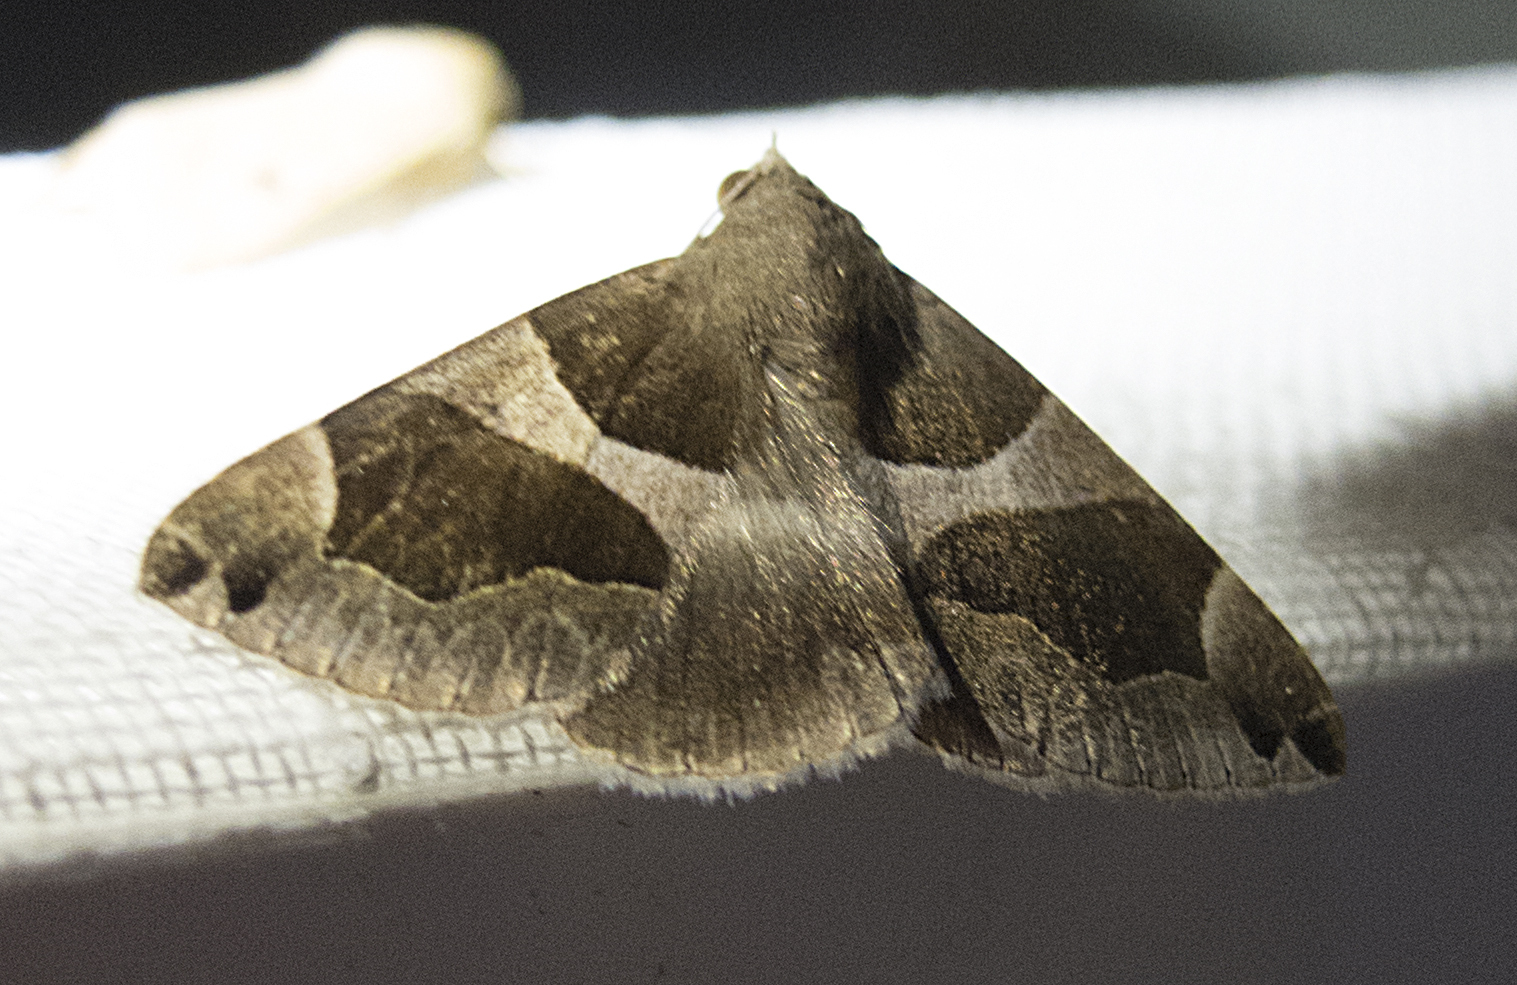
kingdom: Animalia
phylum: Arthropoda
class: Insecta
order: Lepidoptera
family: Erebidae
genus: Dysgonia
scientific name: Dysgonia algira
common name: Passenger
